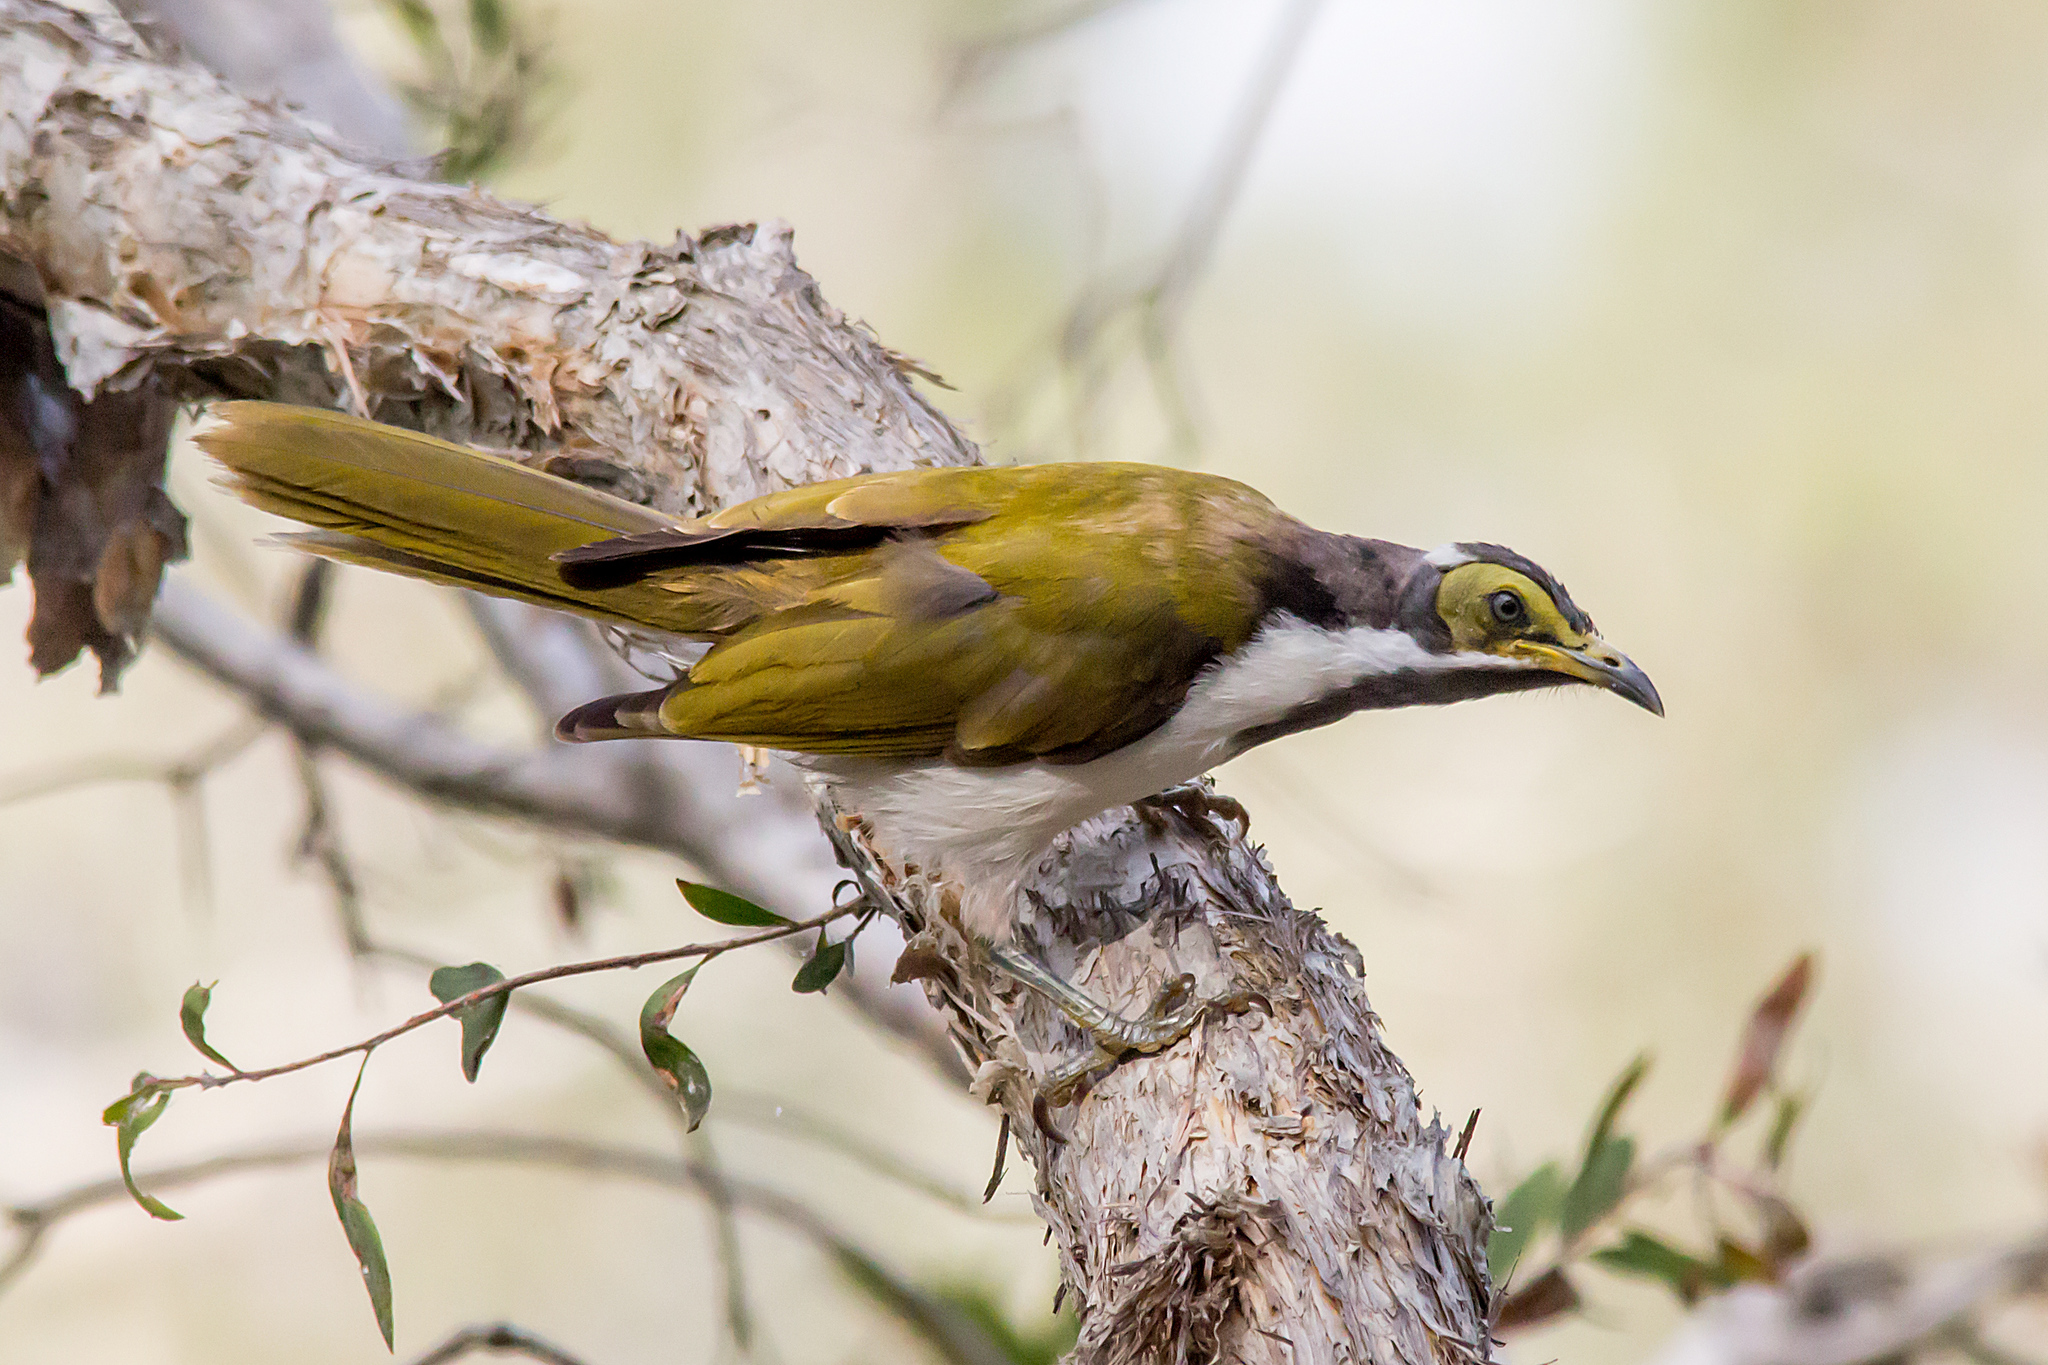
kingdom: Animalia
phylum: Chordata
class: Aves
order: Passeriformes
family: Meliphagidae
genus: Entomyzon
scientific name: Entomyzon cyanotis
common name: Blue-faced honeyeater
